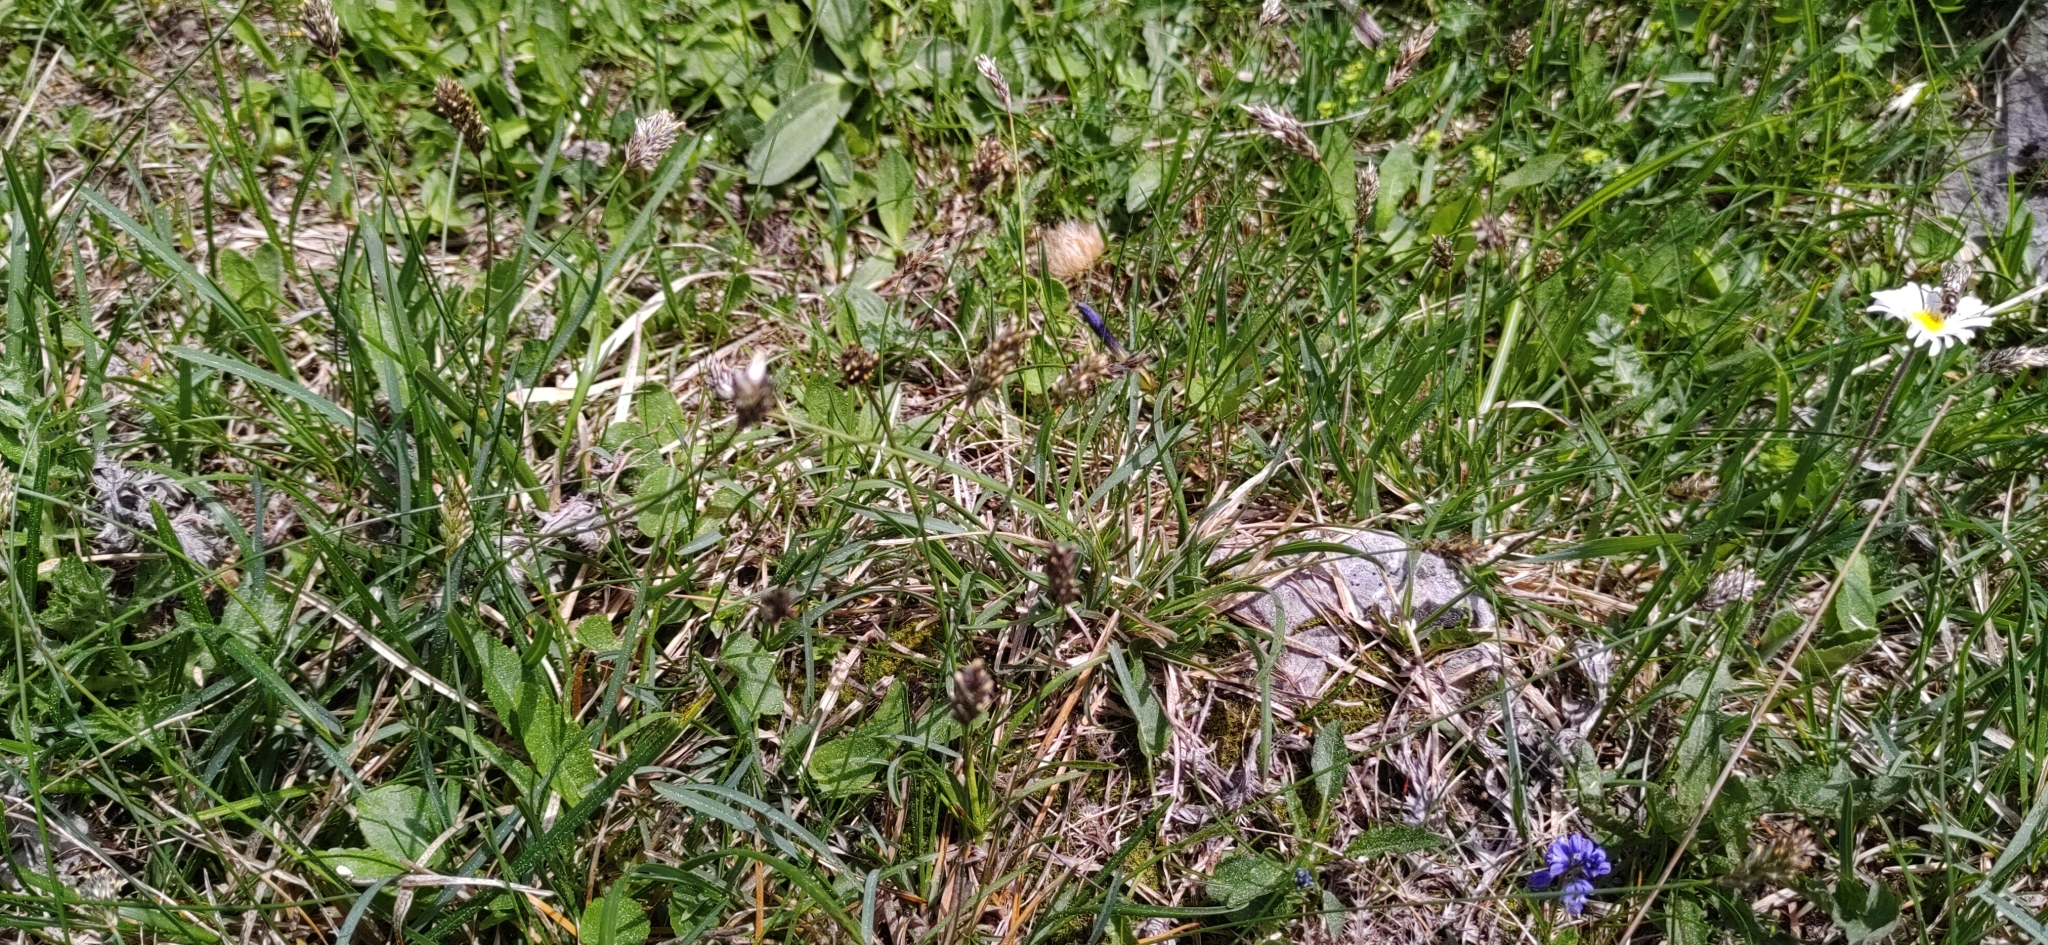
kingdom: Plantae
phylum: Tracheophyta
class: Liliopsida
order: Poales
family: Poaceae
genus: Sesleria
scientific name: Sesleria caerulea
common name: Blue moor-grass
